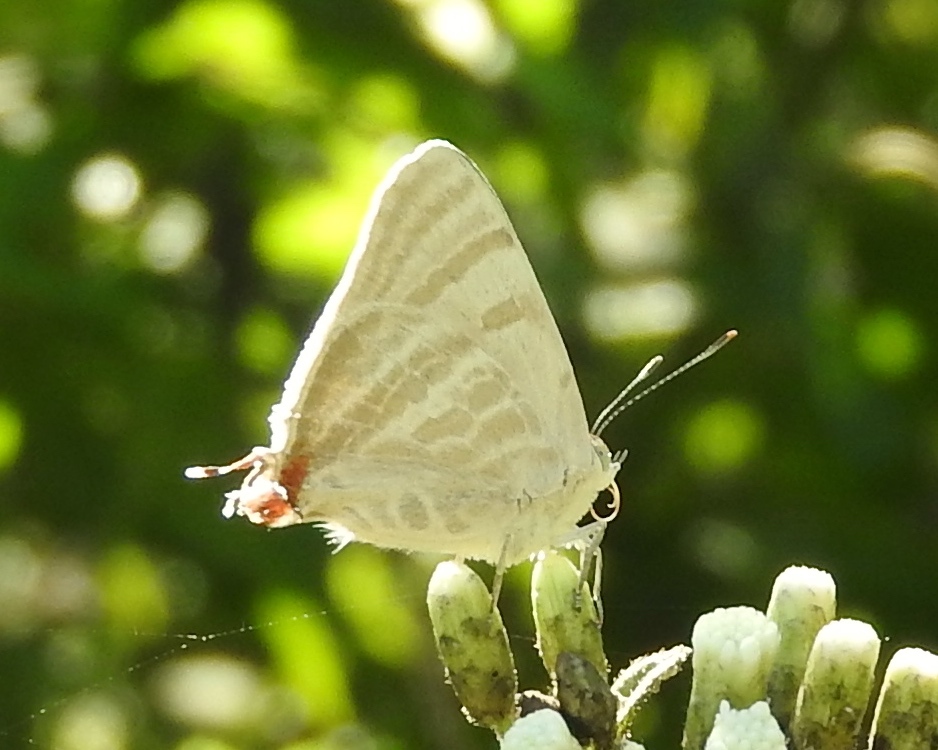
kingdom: Animalia
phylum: Arthropoda
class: Insecta
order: Lepidoptera
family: Lycaenidae
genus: Dolymorpha
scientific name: Dolymorpha jada
